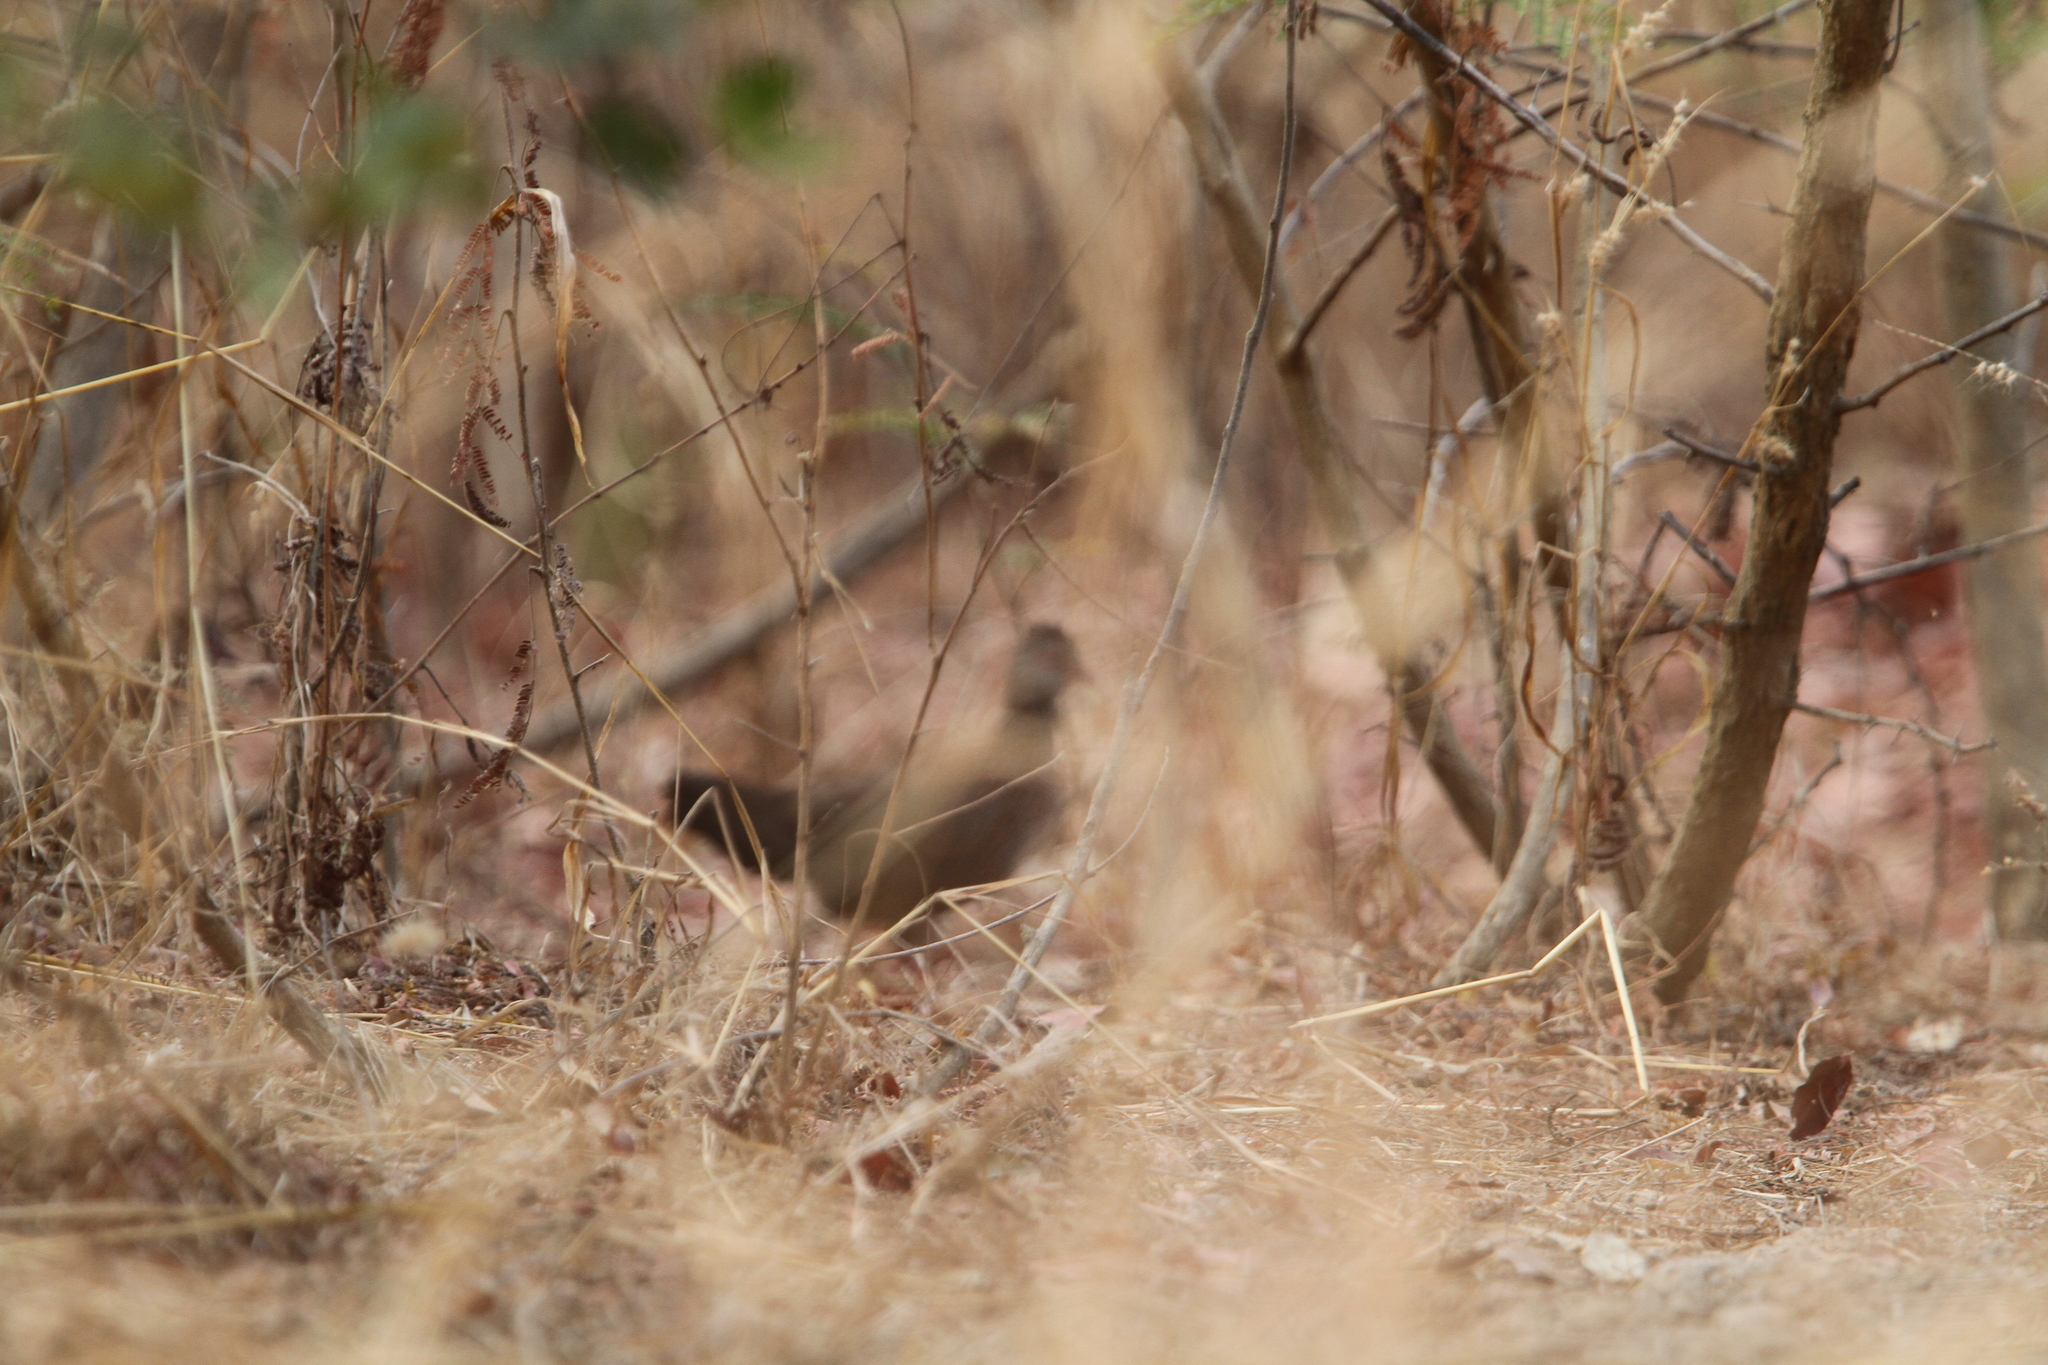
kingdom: Animalia
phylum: Chordata
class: Aves
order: Galliformes
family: Odontophoridae
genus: Ptilopachus
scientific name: Ptilopachus petrosus
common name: Stone partridge
